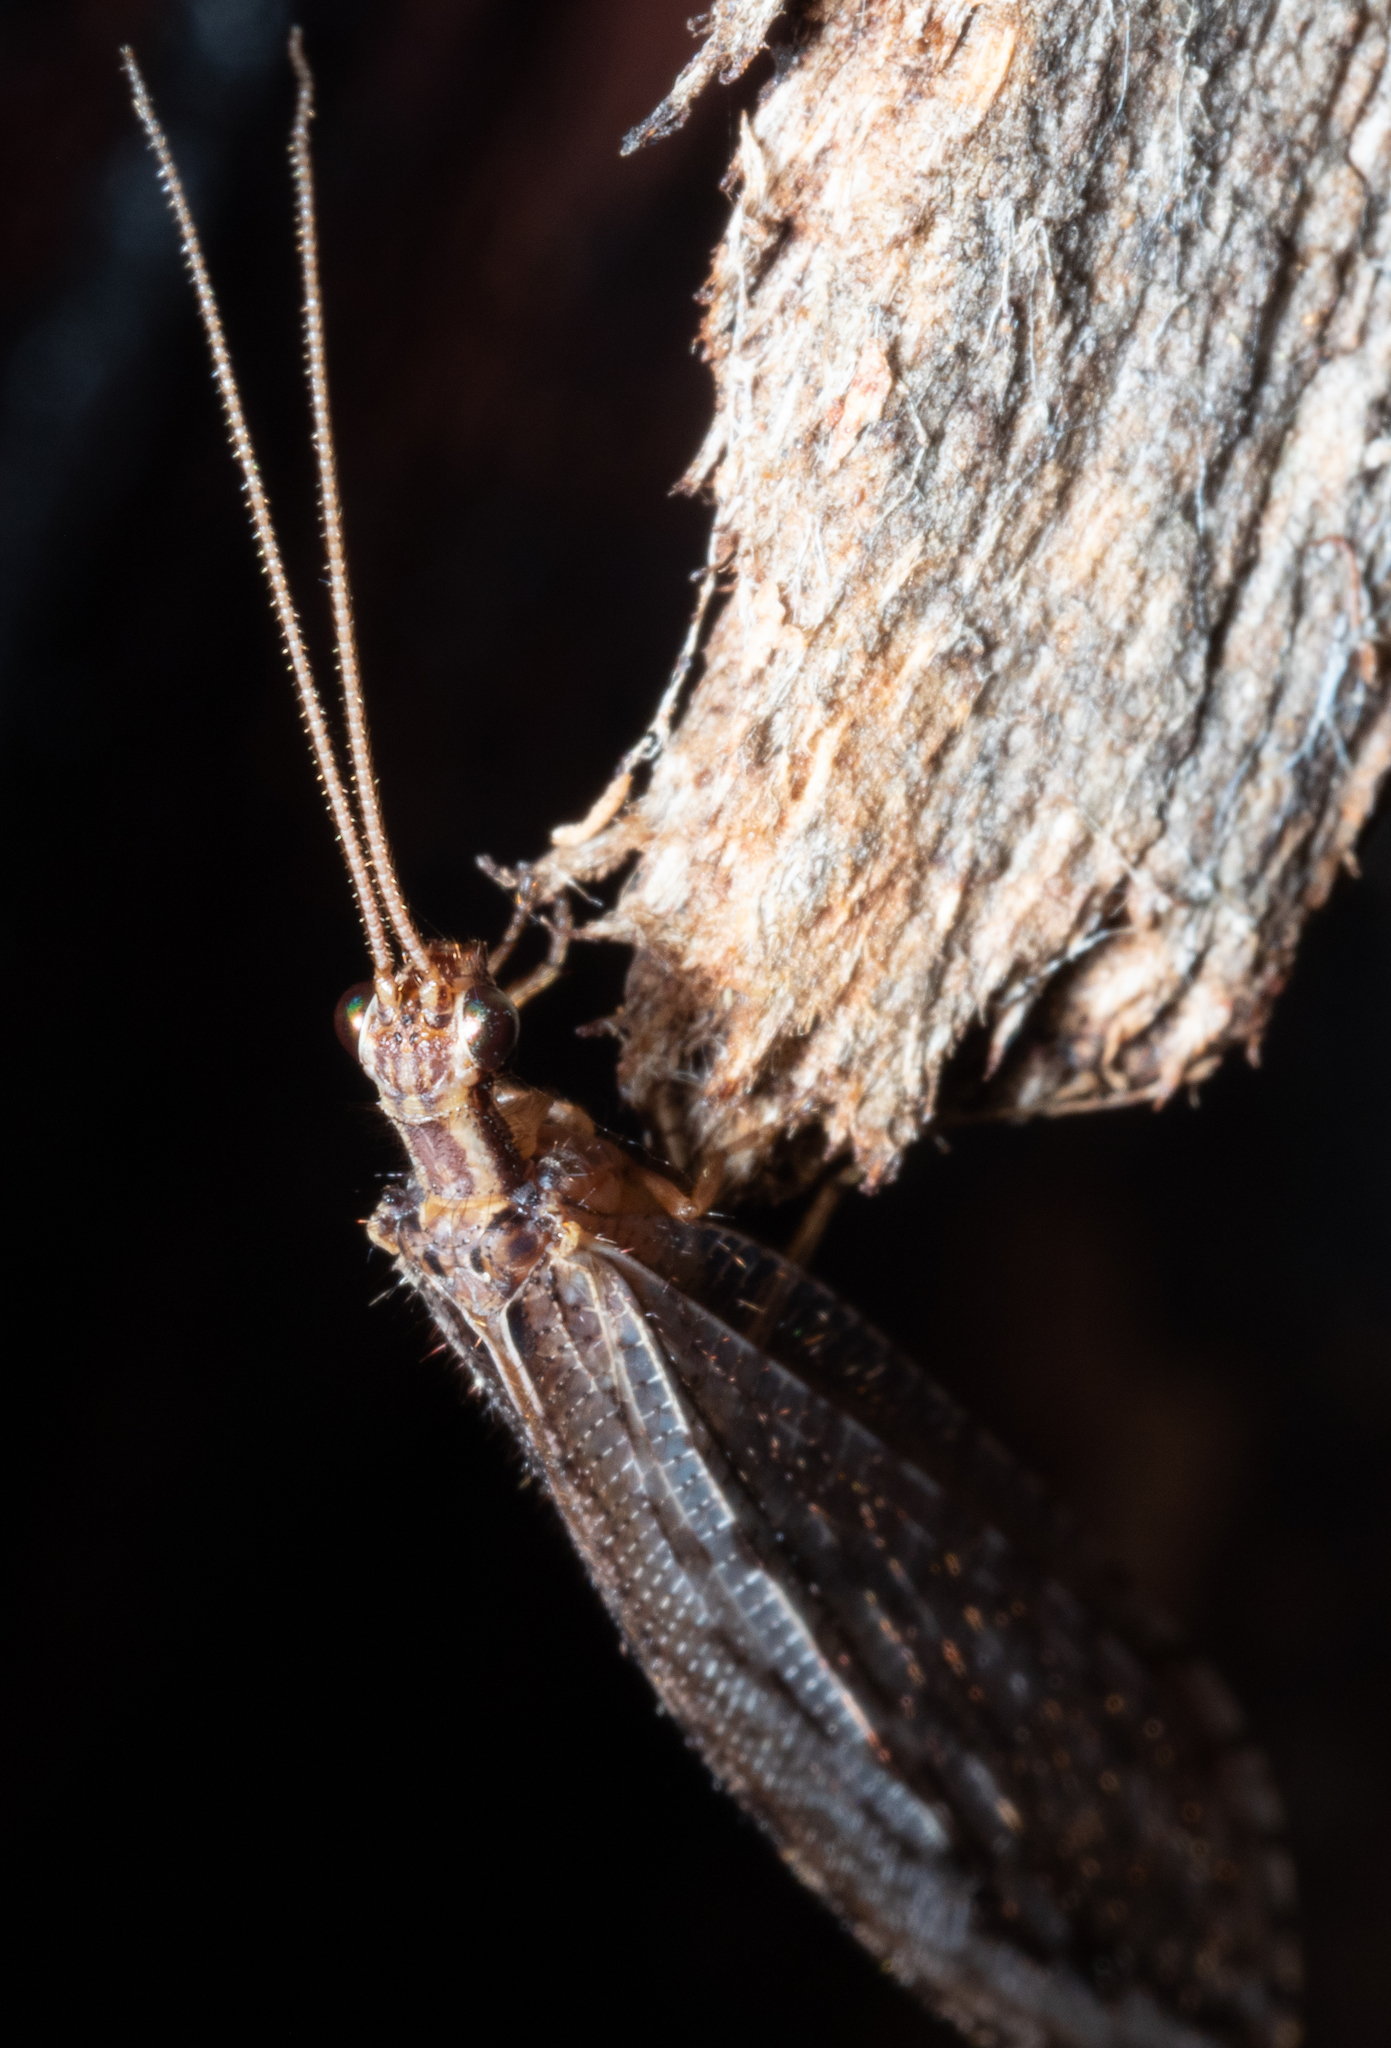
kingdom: Animalia
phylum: Arthropoda
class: Insecta
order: Neuroptera
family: Osmylidae
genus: Oedosmylus
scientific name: Oedosmylus tasmaniensis
